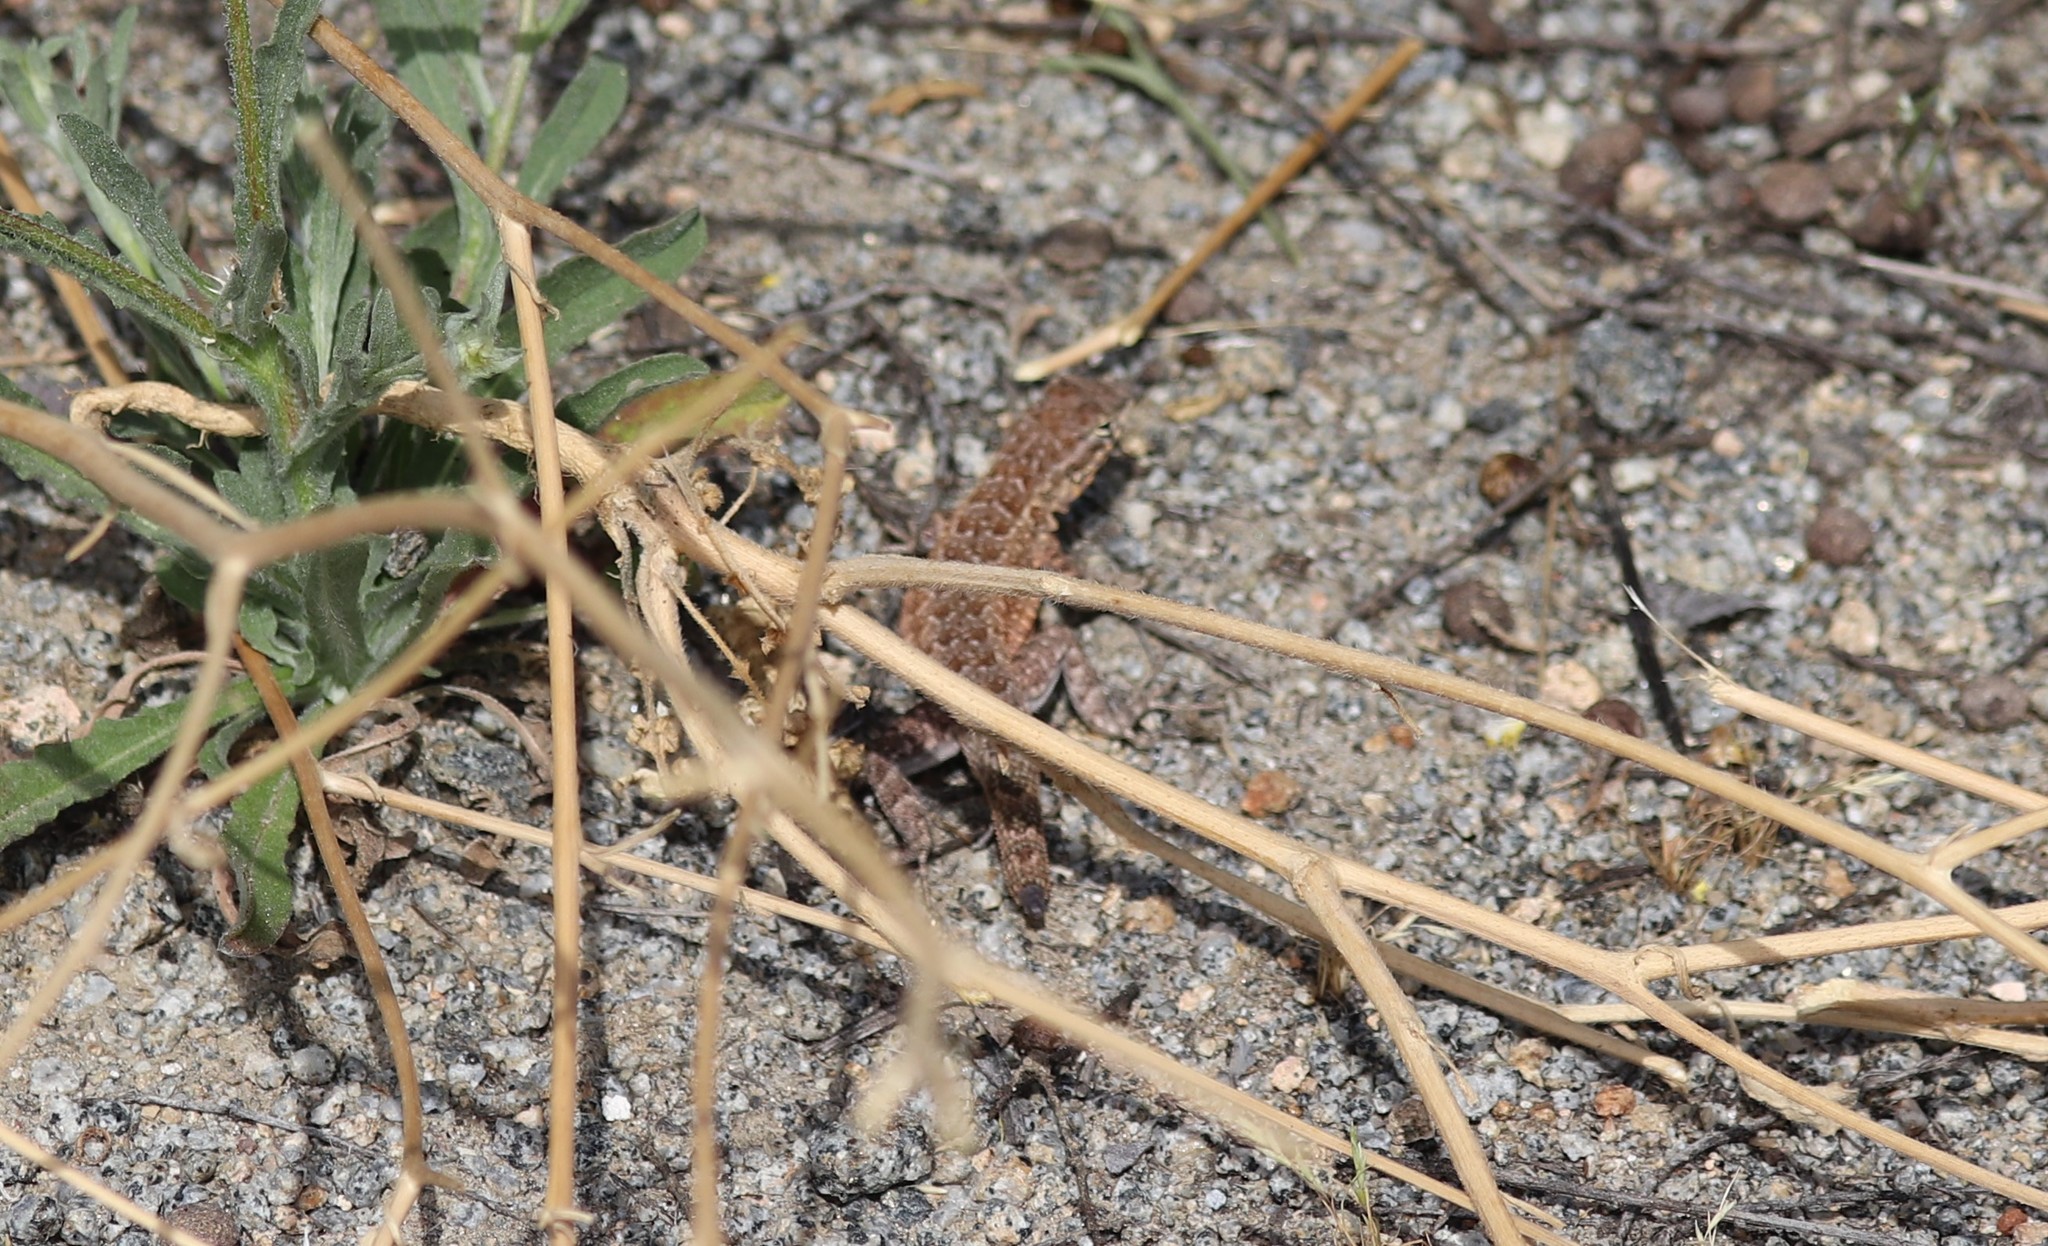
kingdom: Animalia
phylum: Chordata
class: Squamata
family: Phrynosomatidae
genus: Uta
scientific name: Uta stansburiana
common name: Side-blotched lizard
